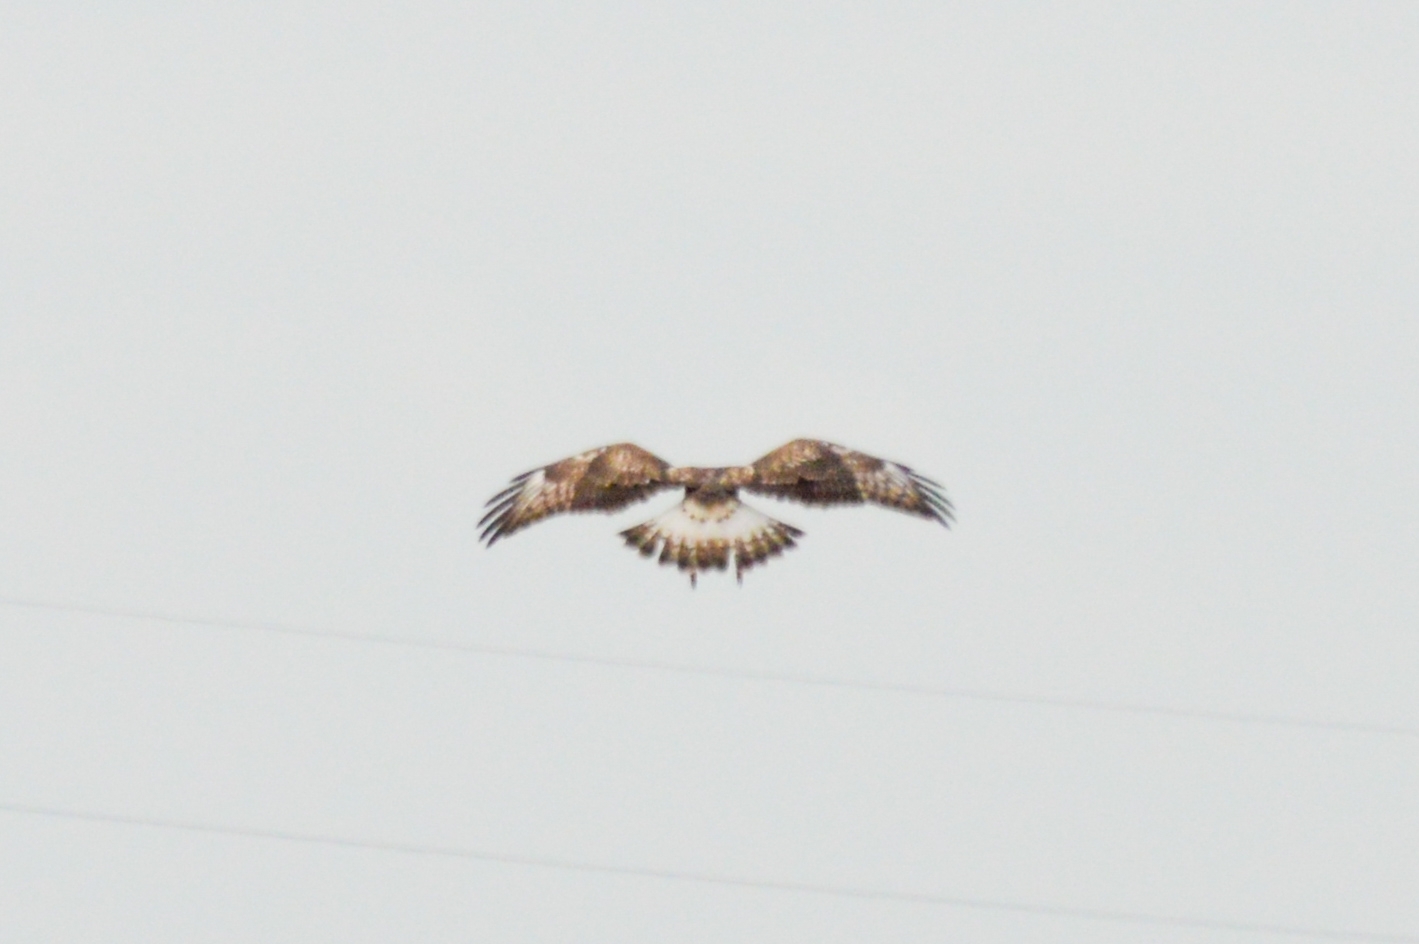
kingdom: Animalia
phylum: Chordata
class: Aves
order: Accipitriformes
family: Accipitridae
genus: Buteo
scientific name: Buteo lagopus
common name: Rough-legged buzzard
